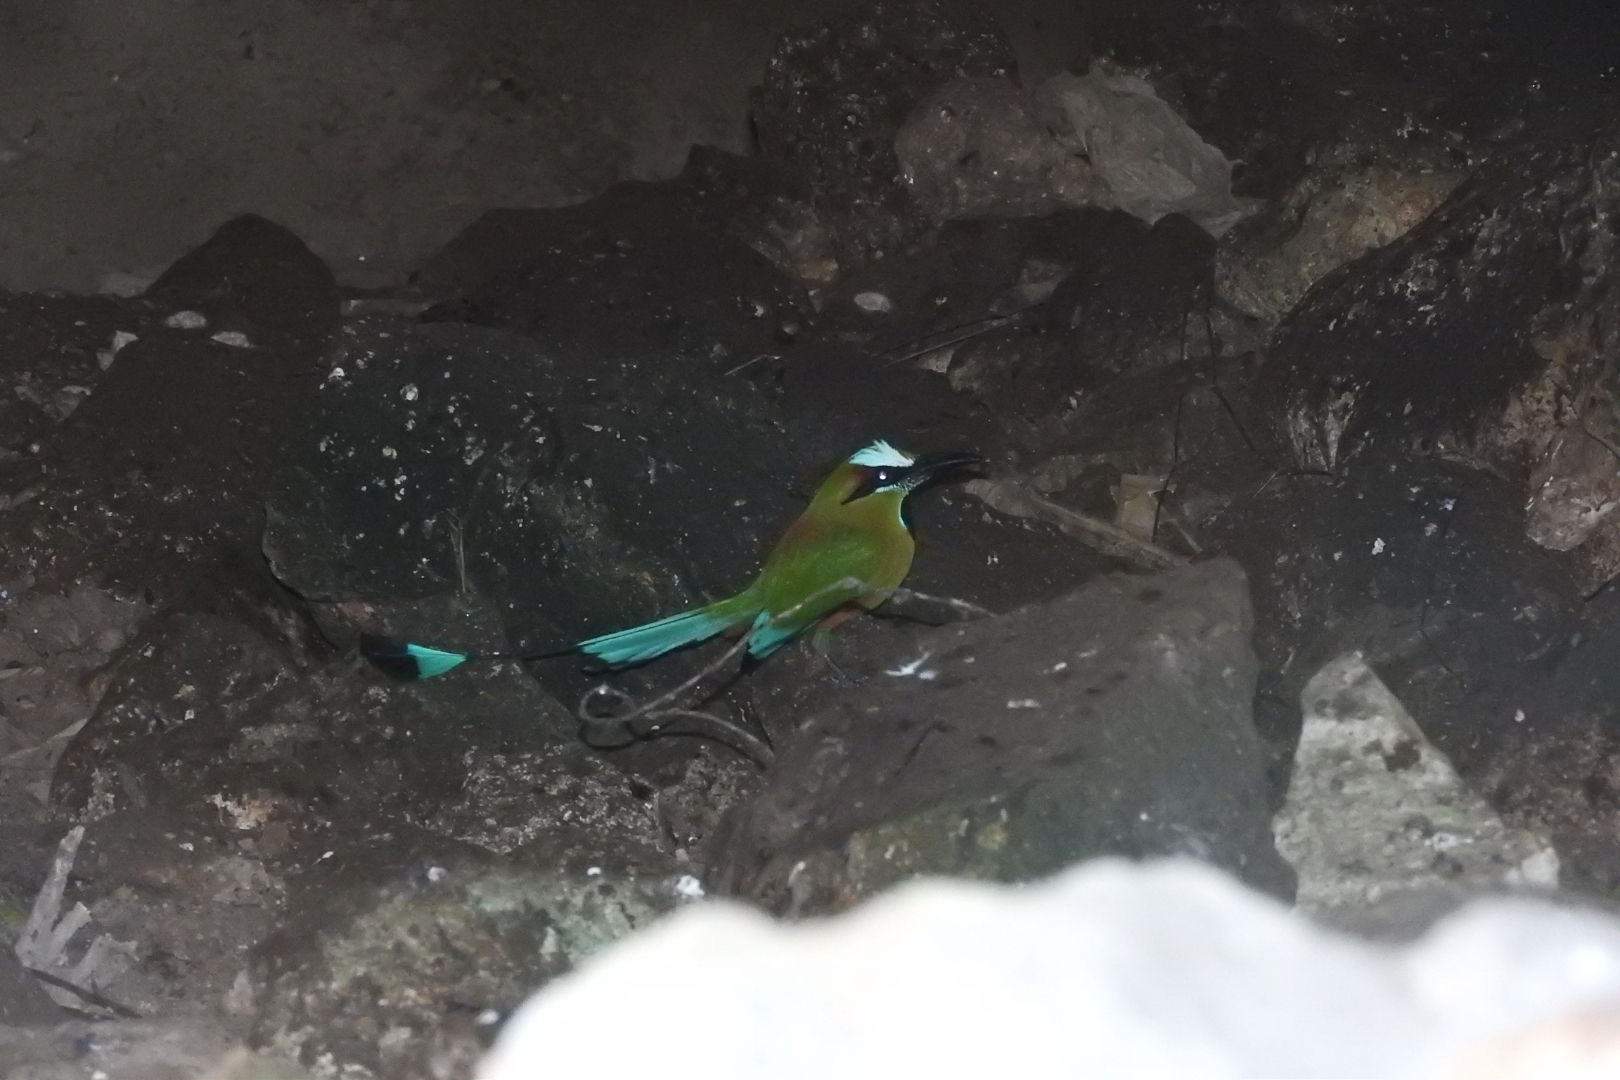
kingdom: Animalia
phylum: Chordata
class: Aves
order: Coraciiformes
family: Momotidae
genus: Eumomota
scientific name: Eumomota superciliosa
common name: Turquoise-browed motmot
